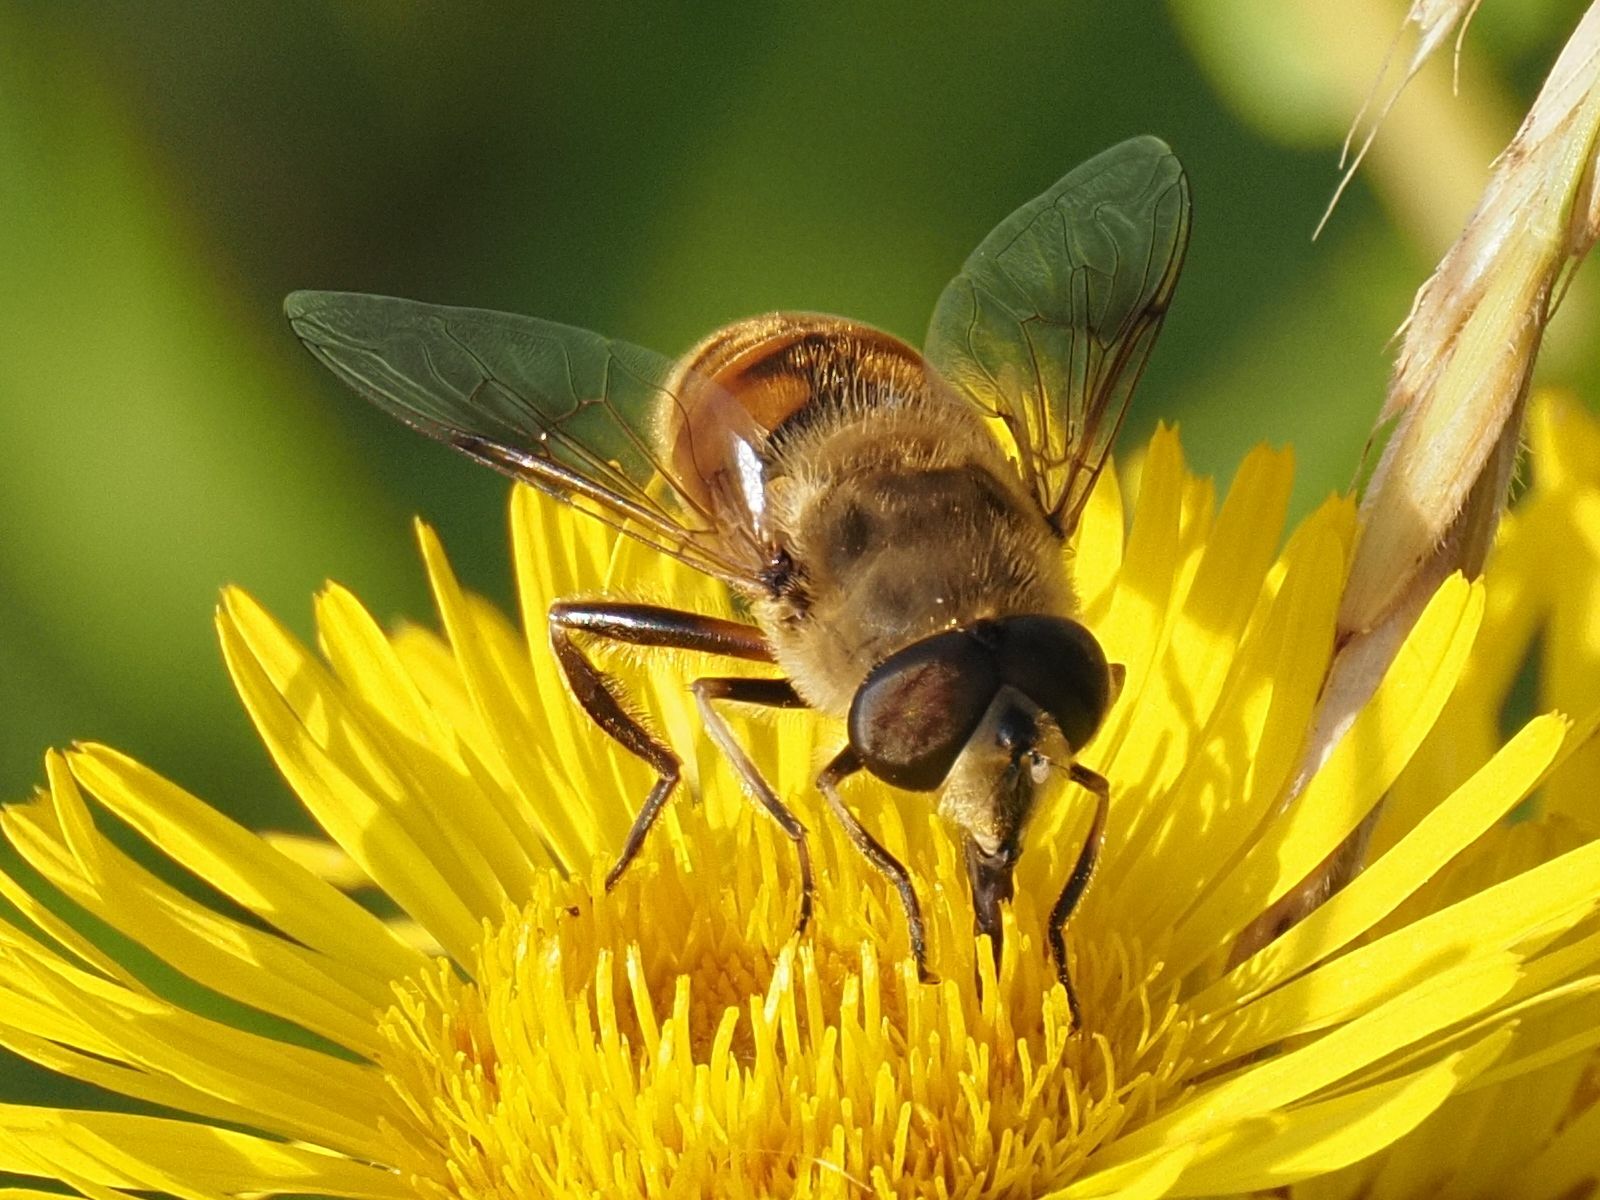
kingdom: Animalia
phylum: Arthropoda
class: Insecta
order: Diptera
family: Syrphidae
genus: Eristalis
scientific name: Eristalis tenax
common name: Drone fly
